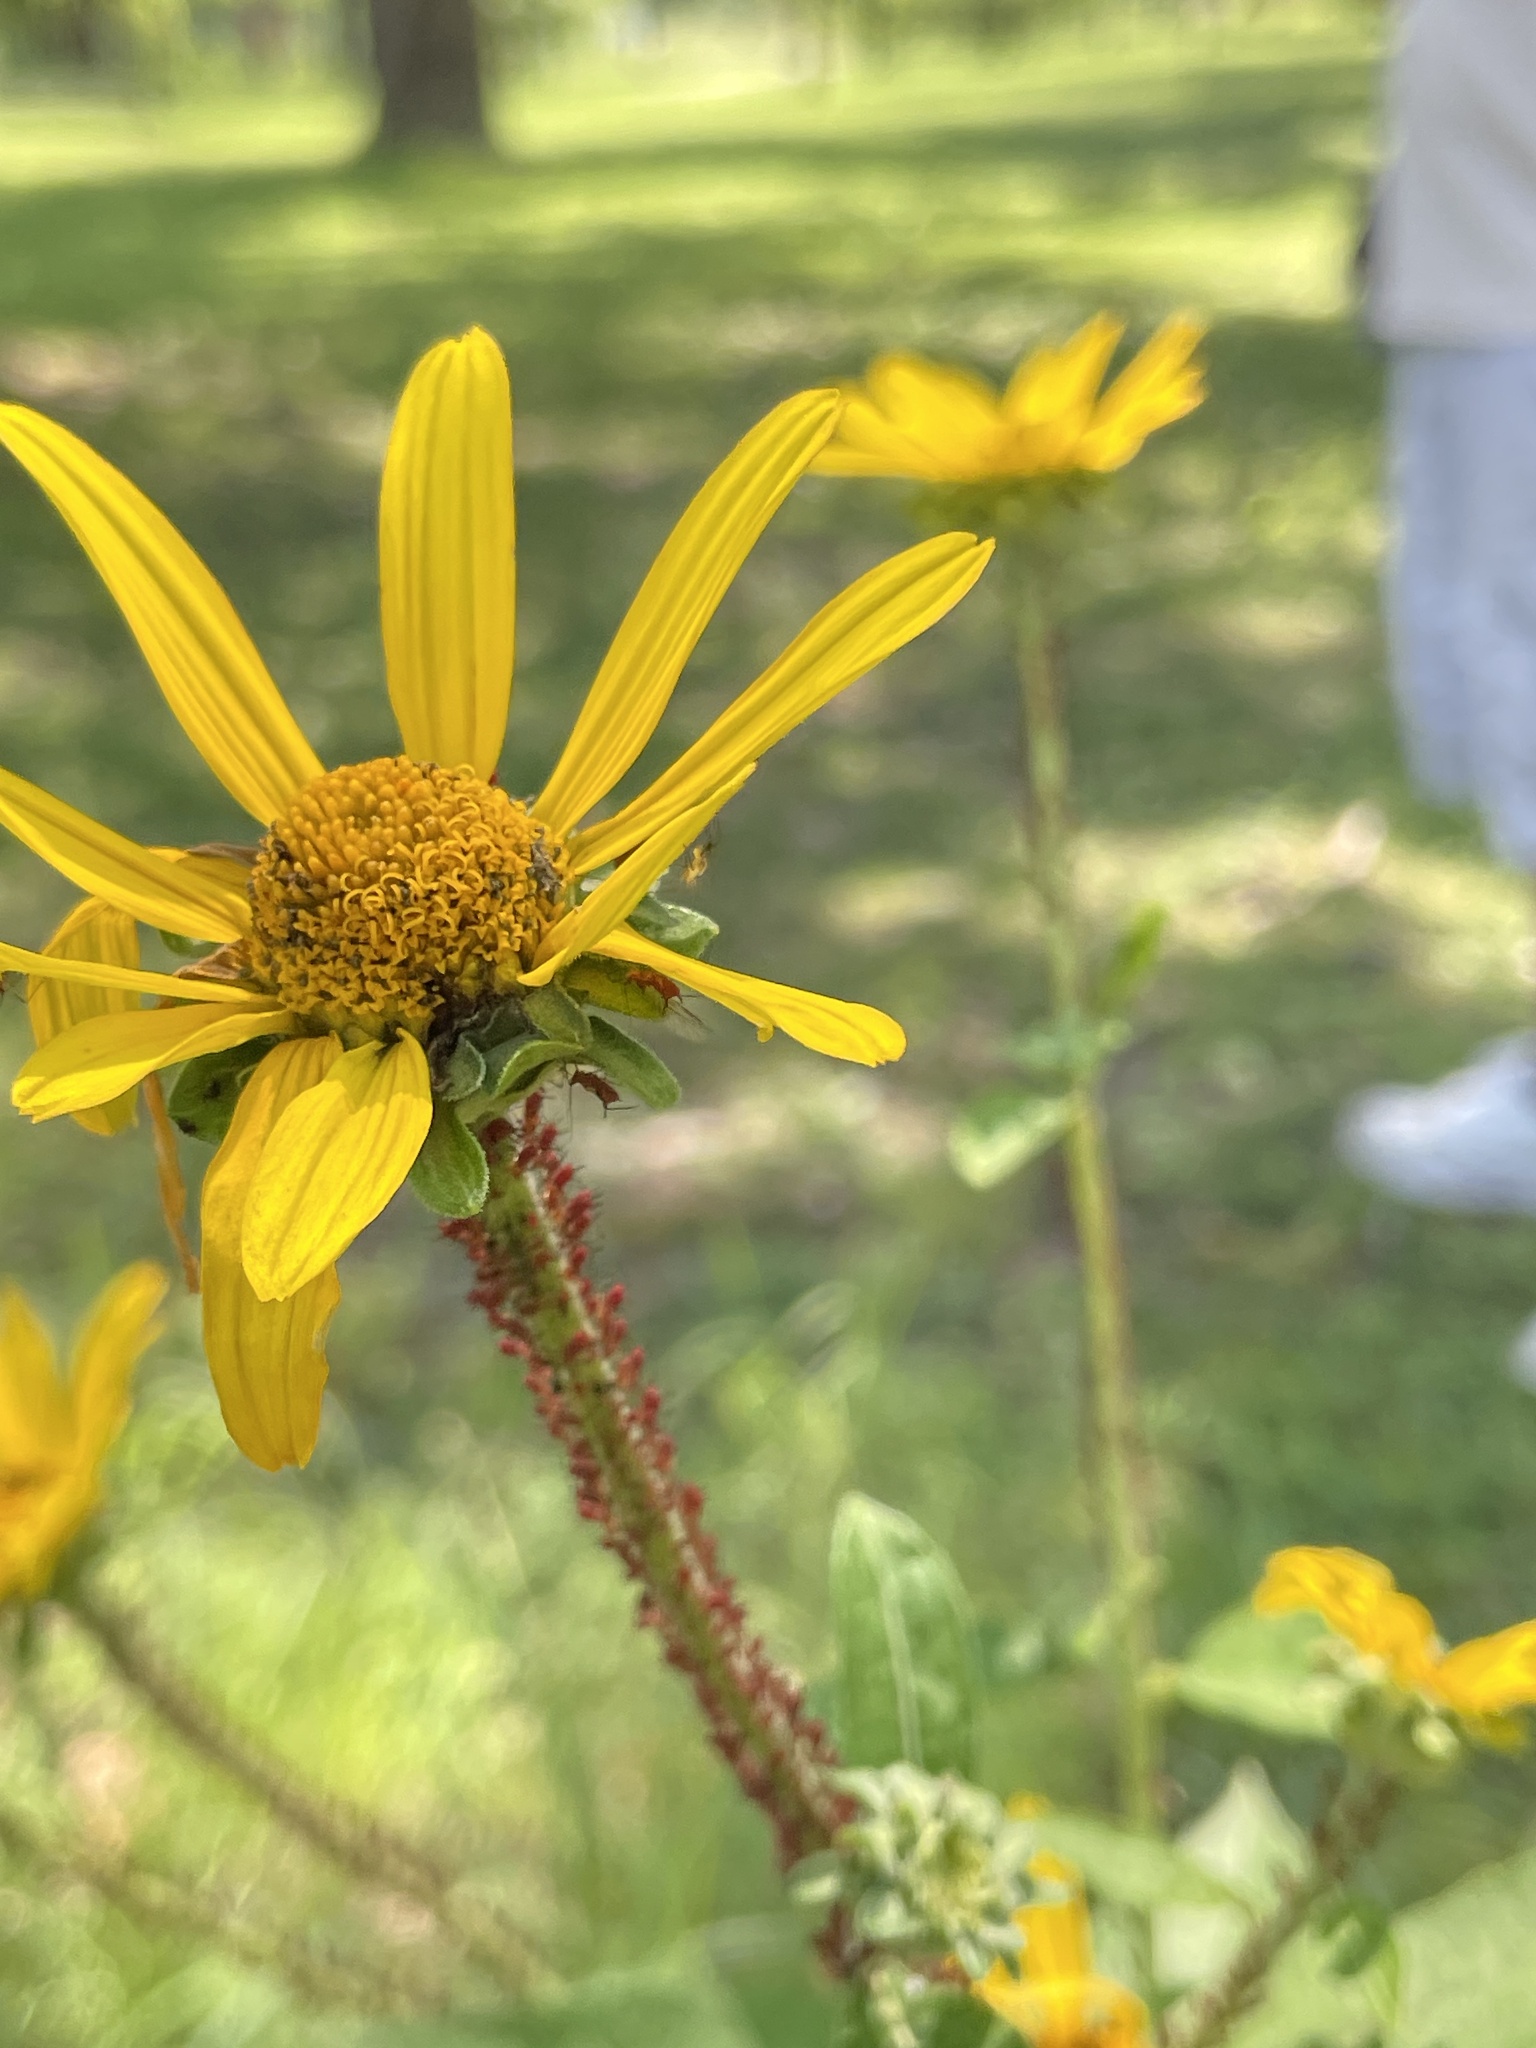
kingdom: Plantae
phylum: Tracheophyta
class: Magnoliopsida
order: Asterales
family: Asteraceae
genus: Heliopsis
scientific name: Heliopsis helianthoides
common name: False sunflower
